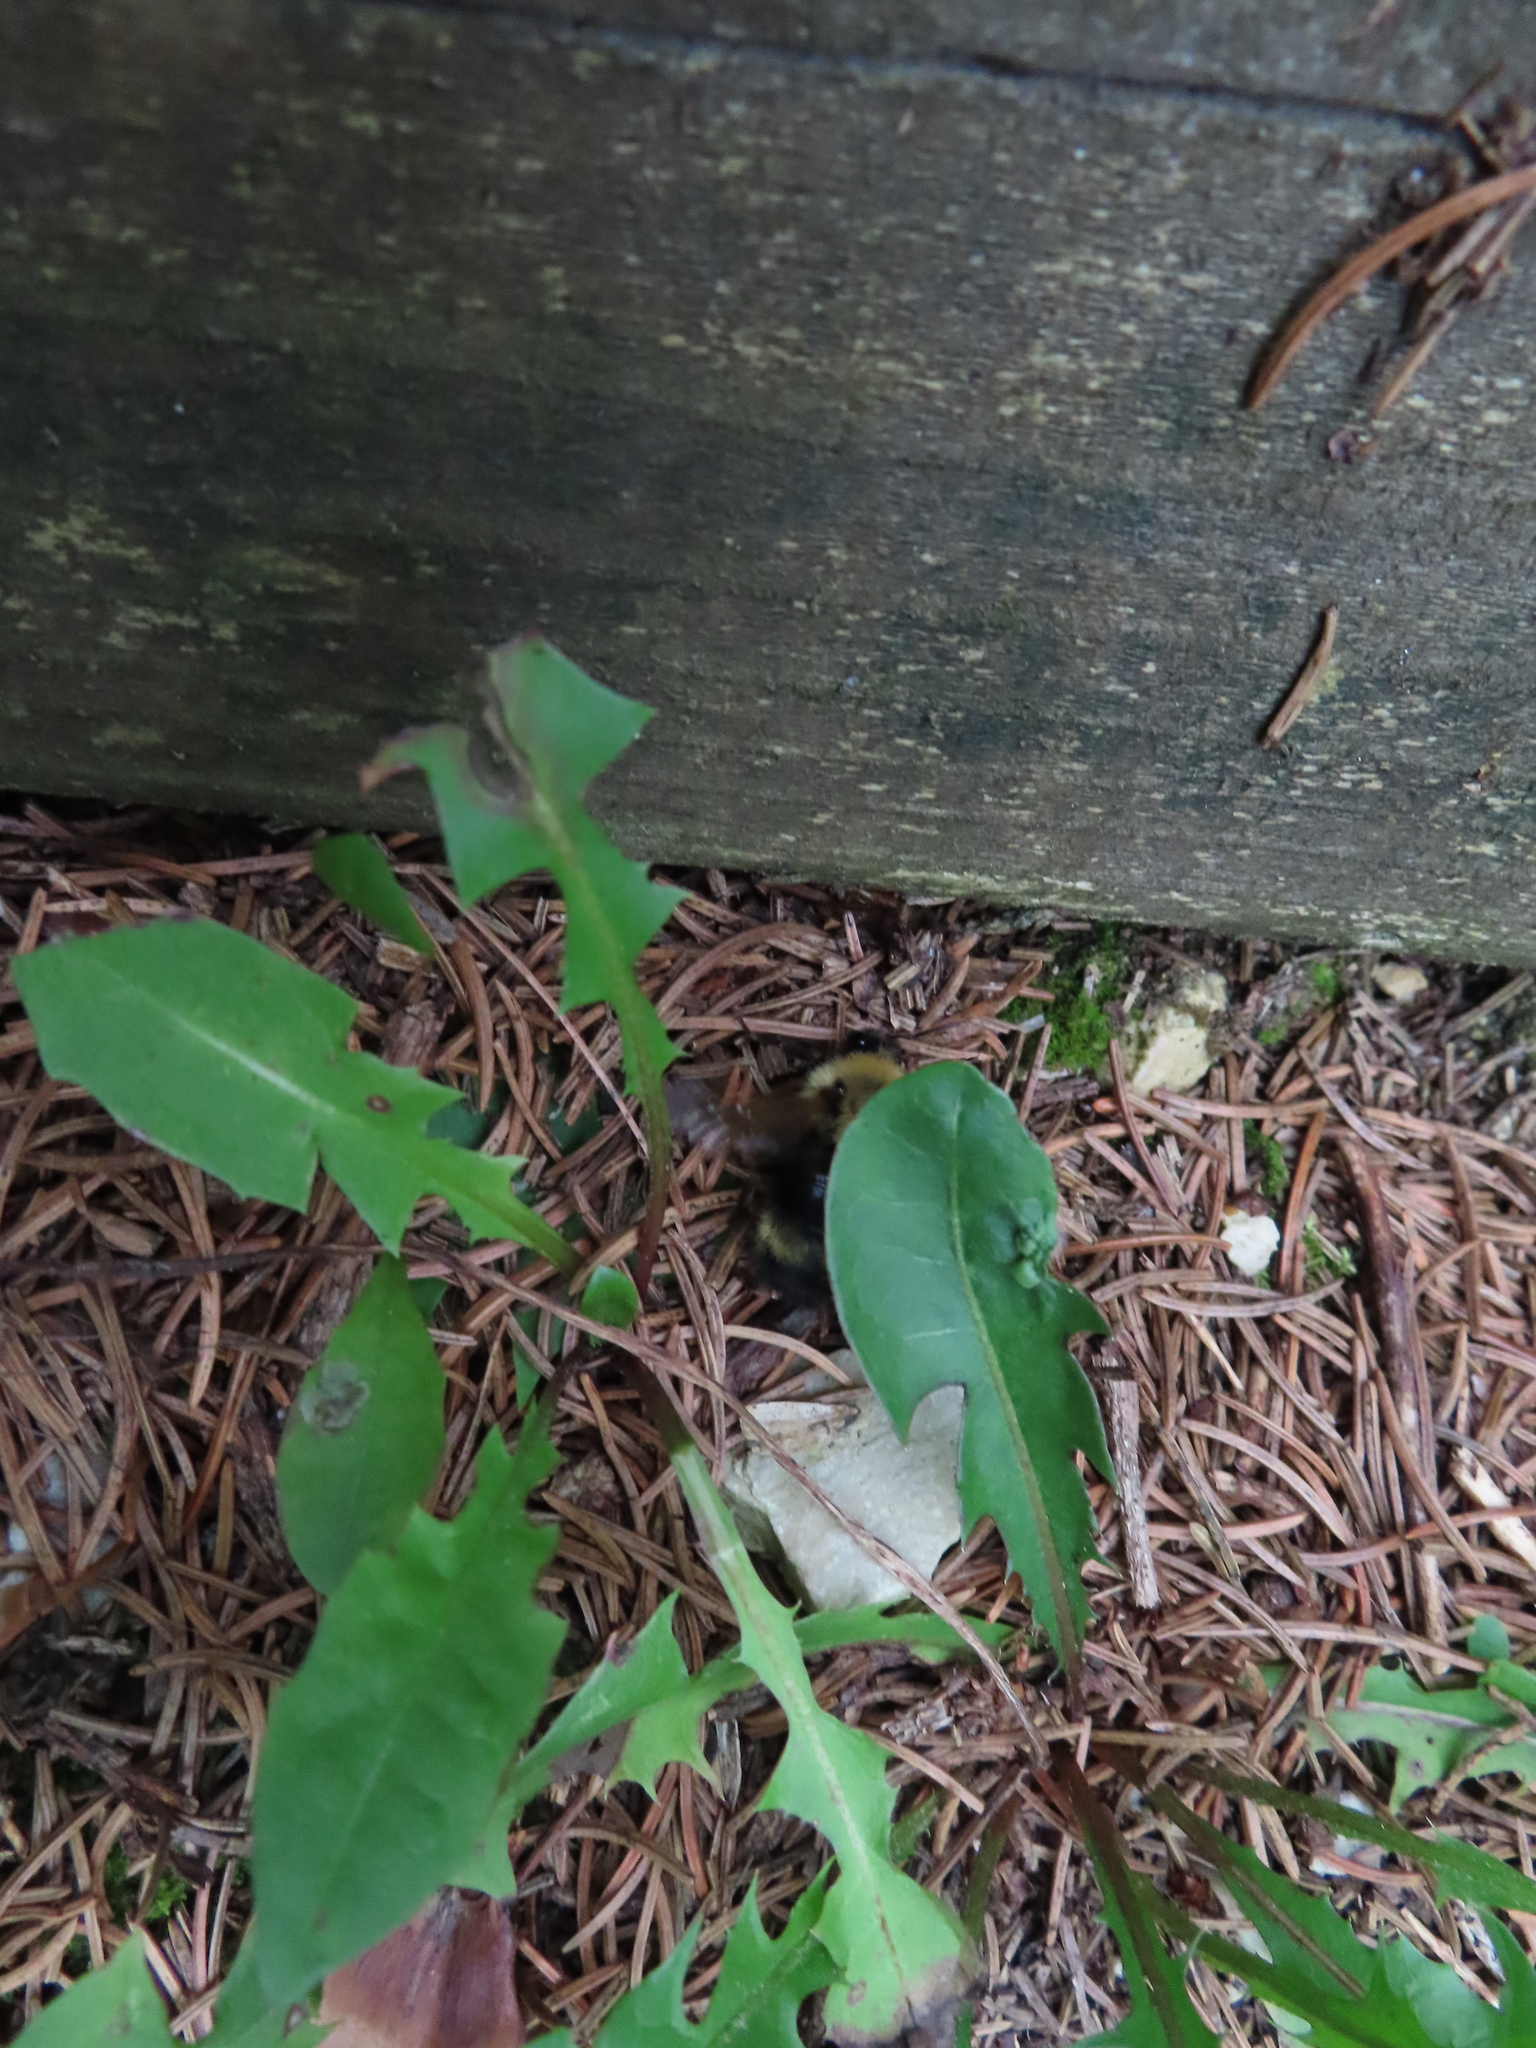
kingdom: Animalia
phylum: Arthropoda
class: Insecta
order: Hymenoptera
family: Apidae
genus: Bombus
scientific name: Bombus citrinus
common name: Lemon cuckoo bumble bee
